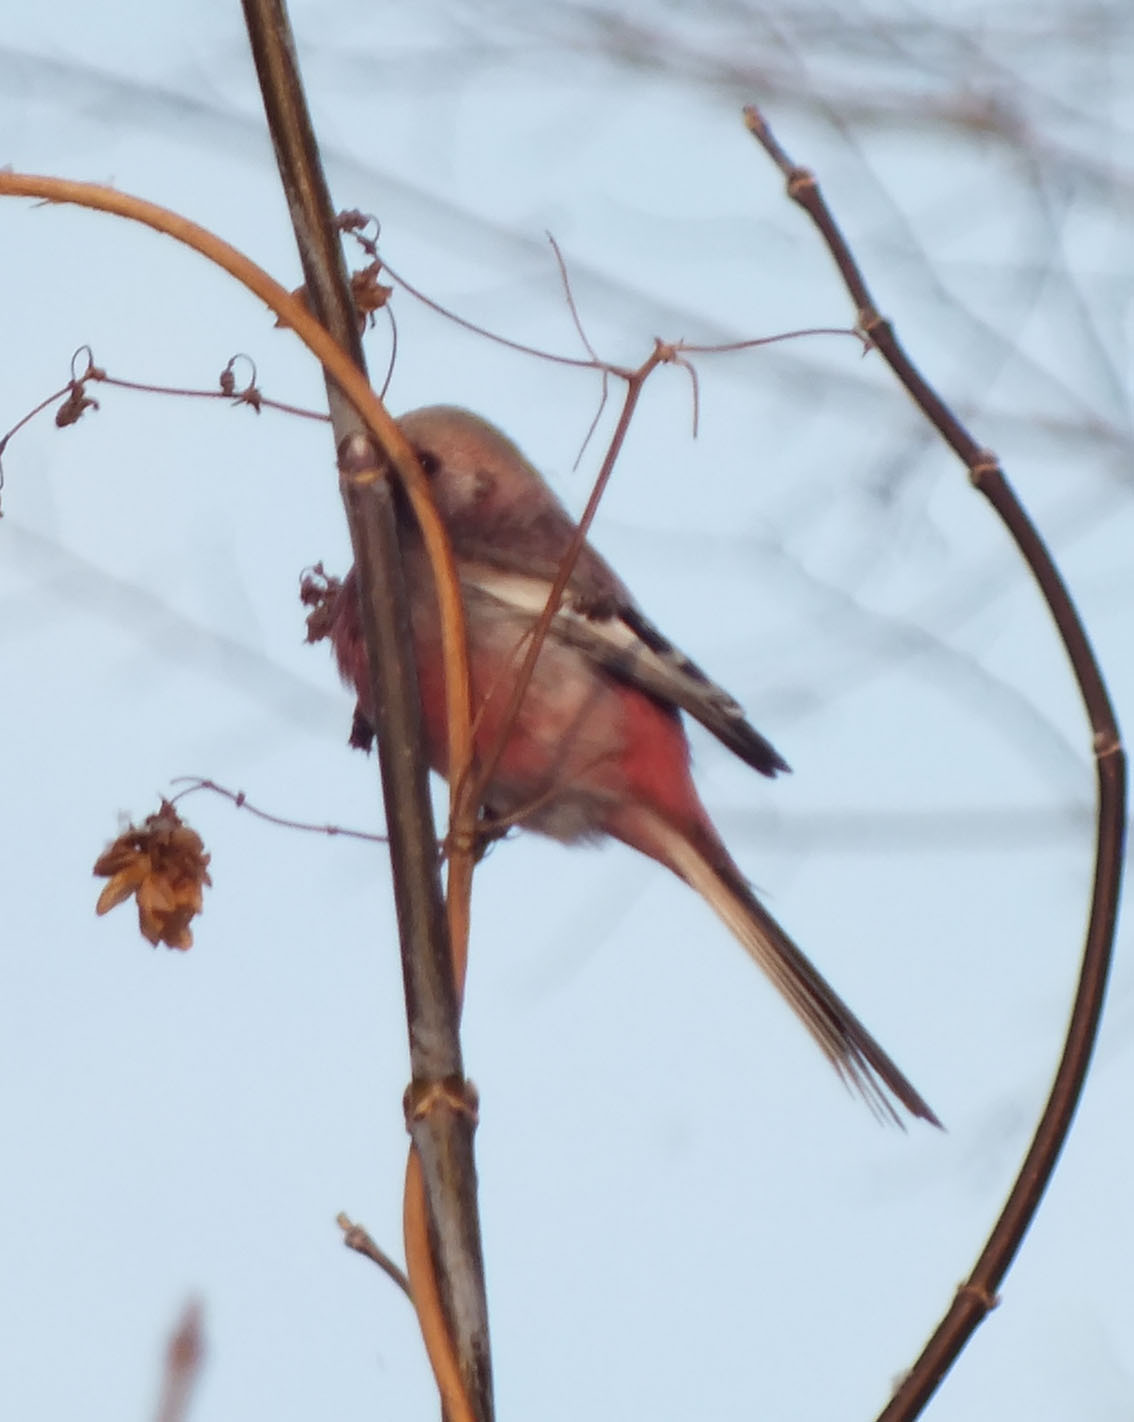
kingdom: Animalia
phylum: Chordata
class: Aves
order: Passeriformes
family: Fringillidae
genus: Carpodacus
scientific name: Carpodacus sibiricus
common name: Long-tailed rosefinch
